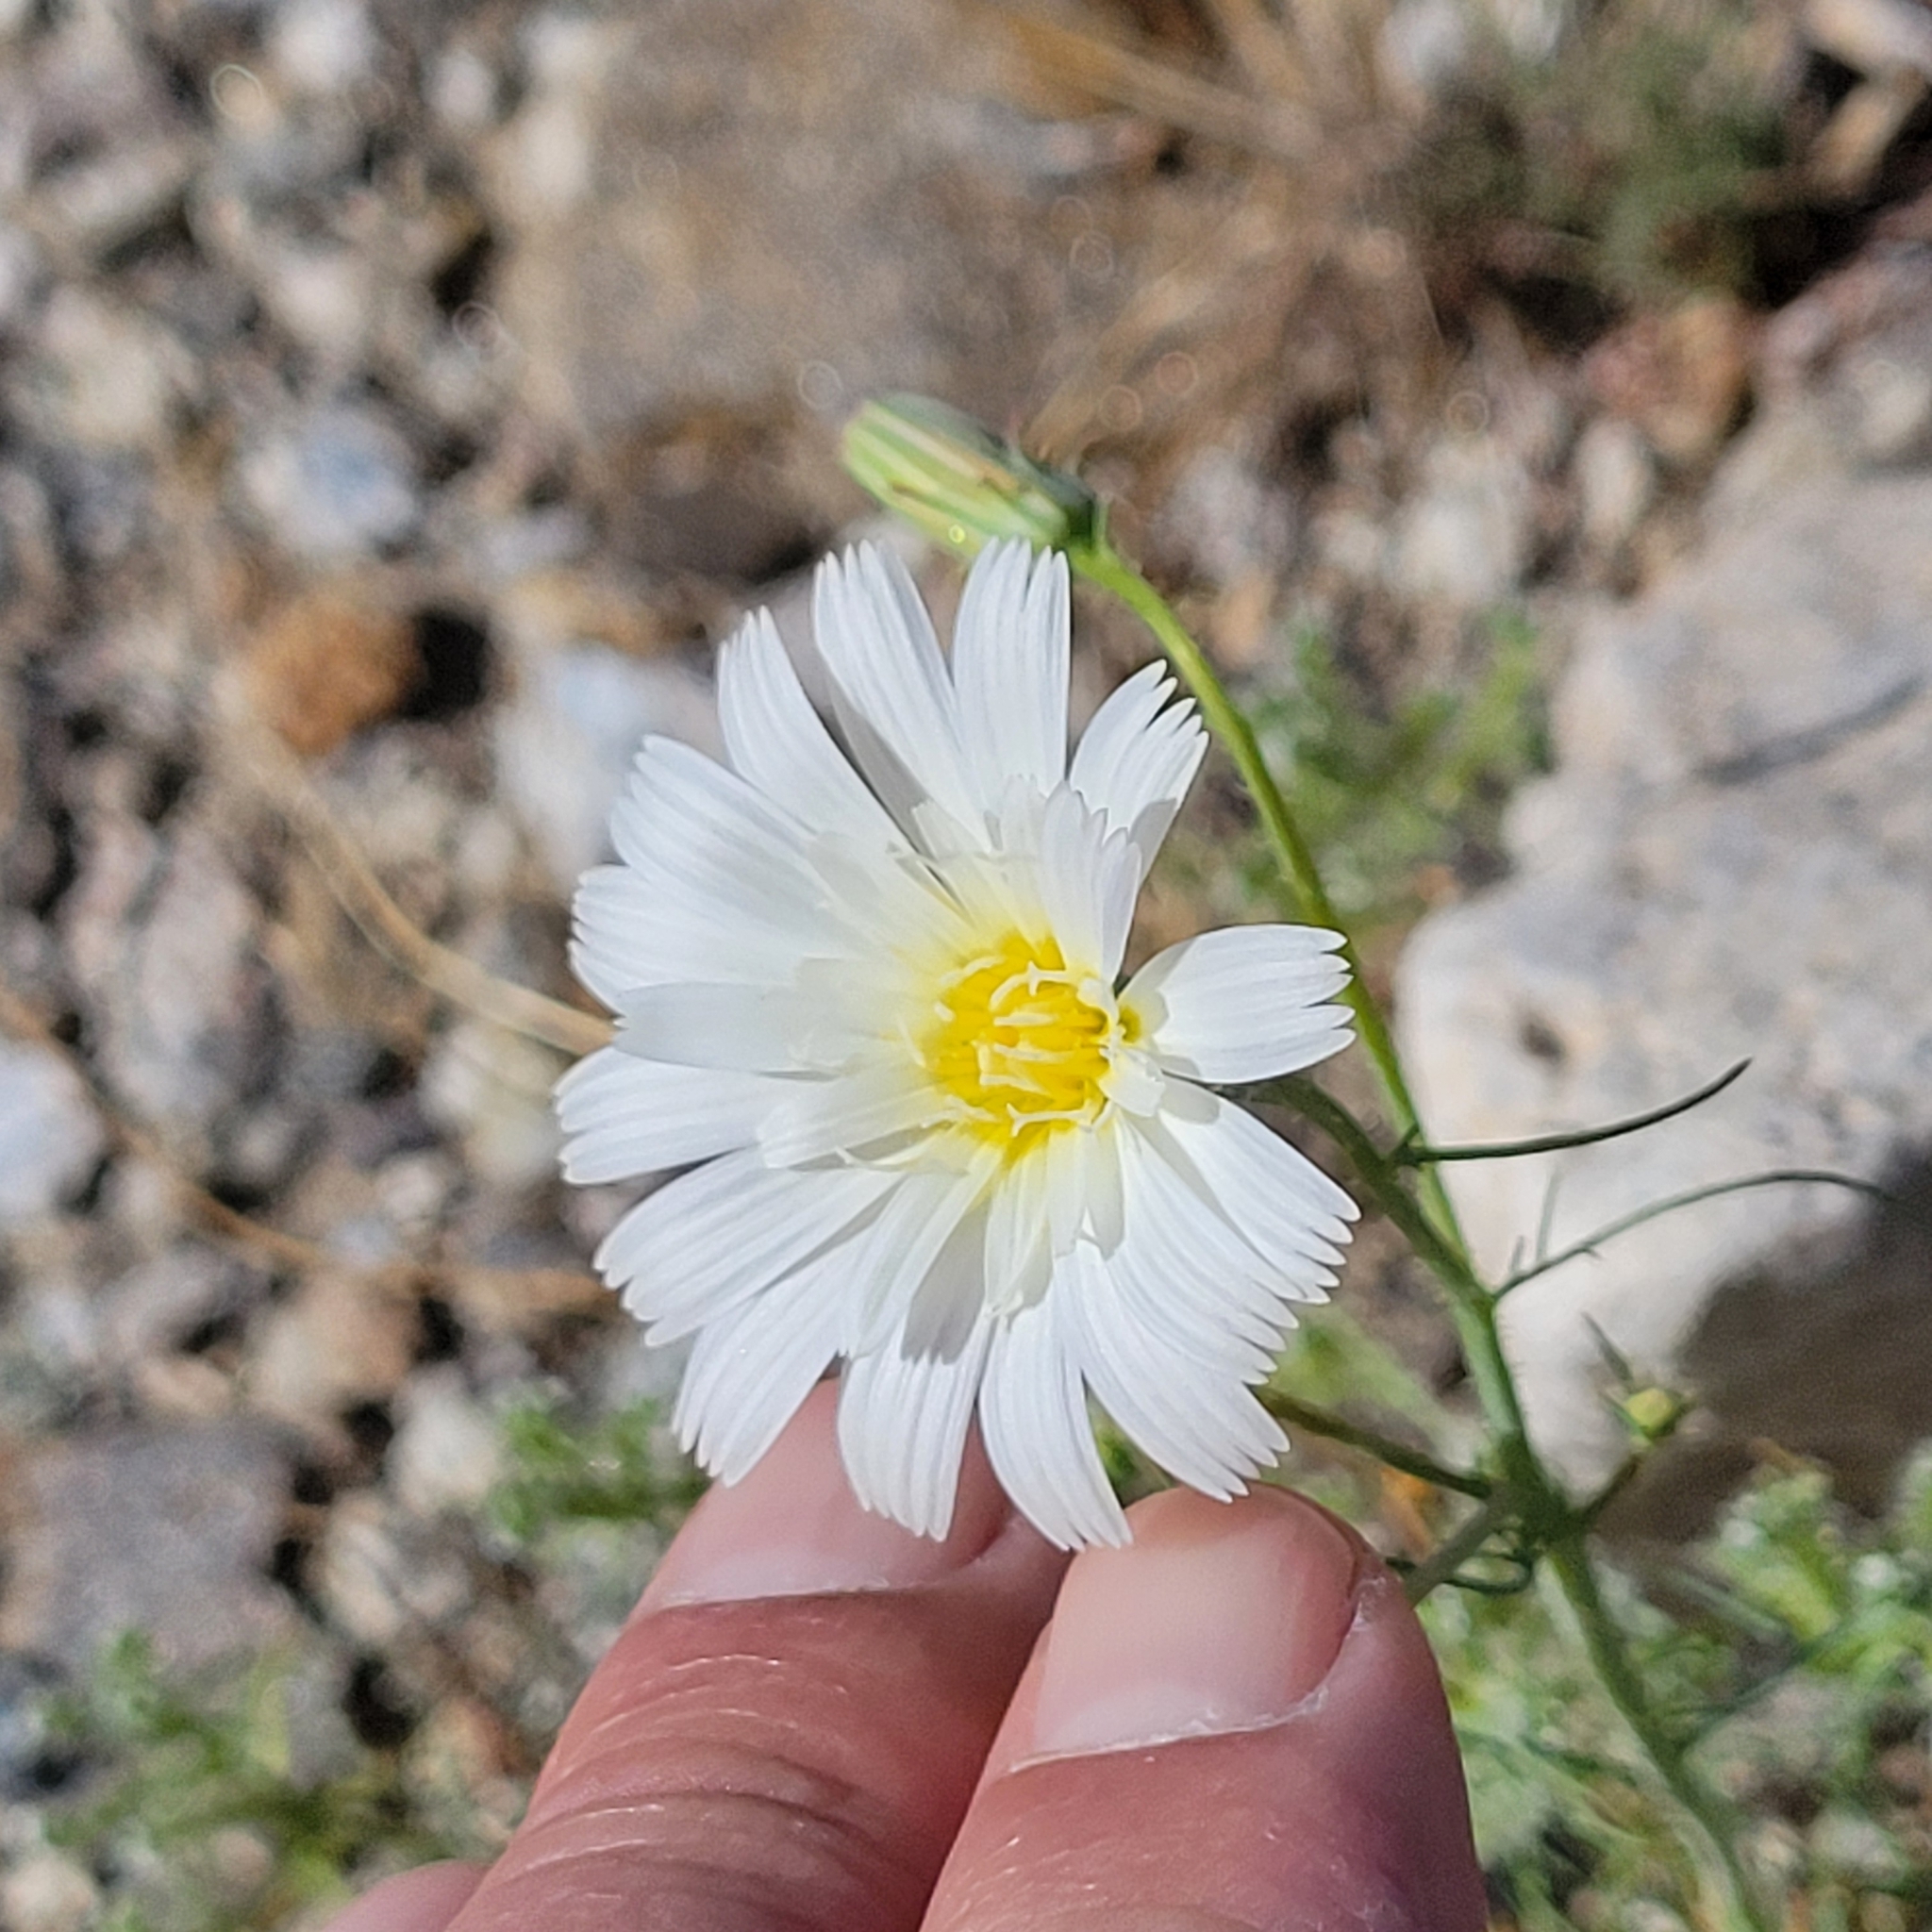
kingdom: Plantae
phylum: Tracheophyta
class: Magnoliopsida
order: Asterales
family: Asteraceae
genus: Calycoseris
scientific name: Calycoseris wrightii
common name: White tackstem
